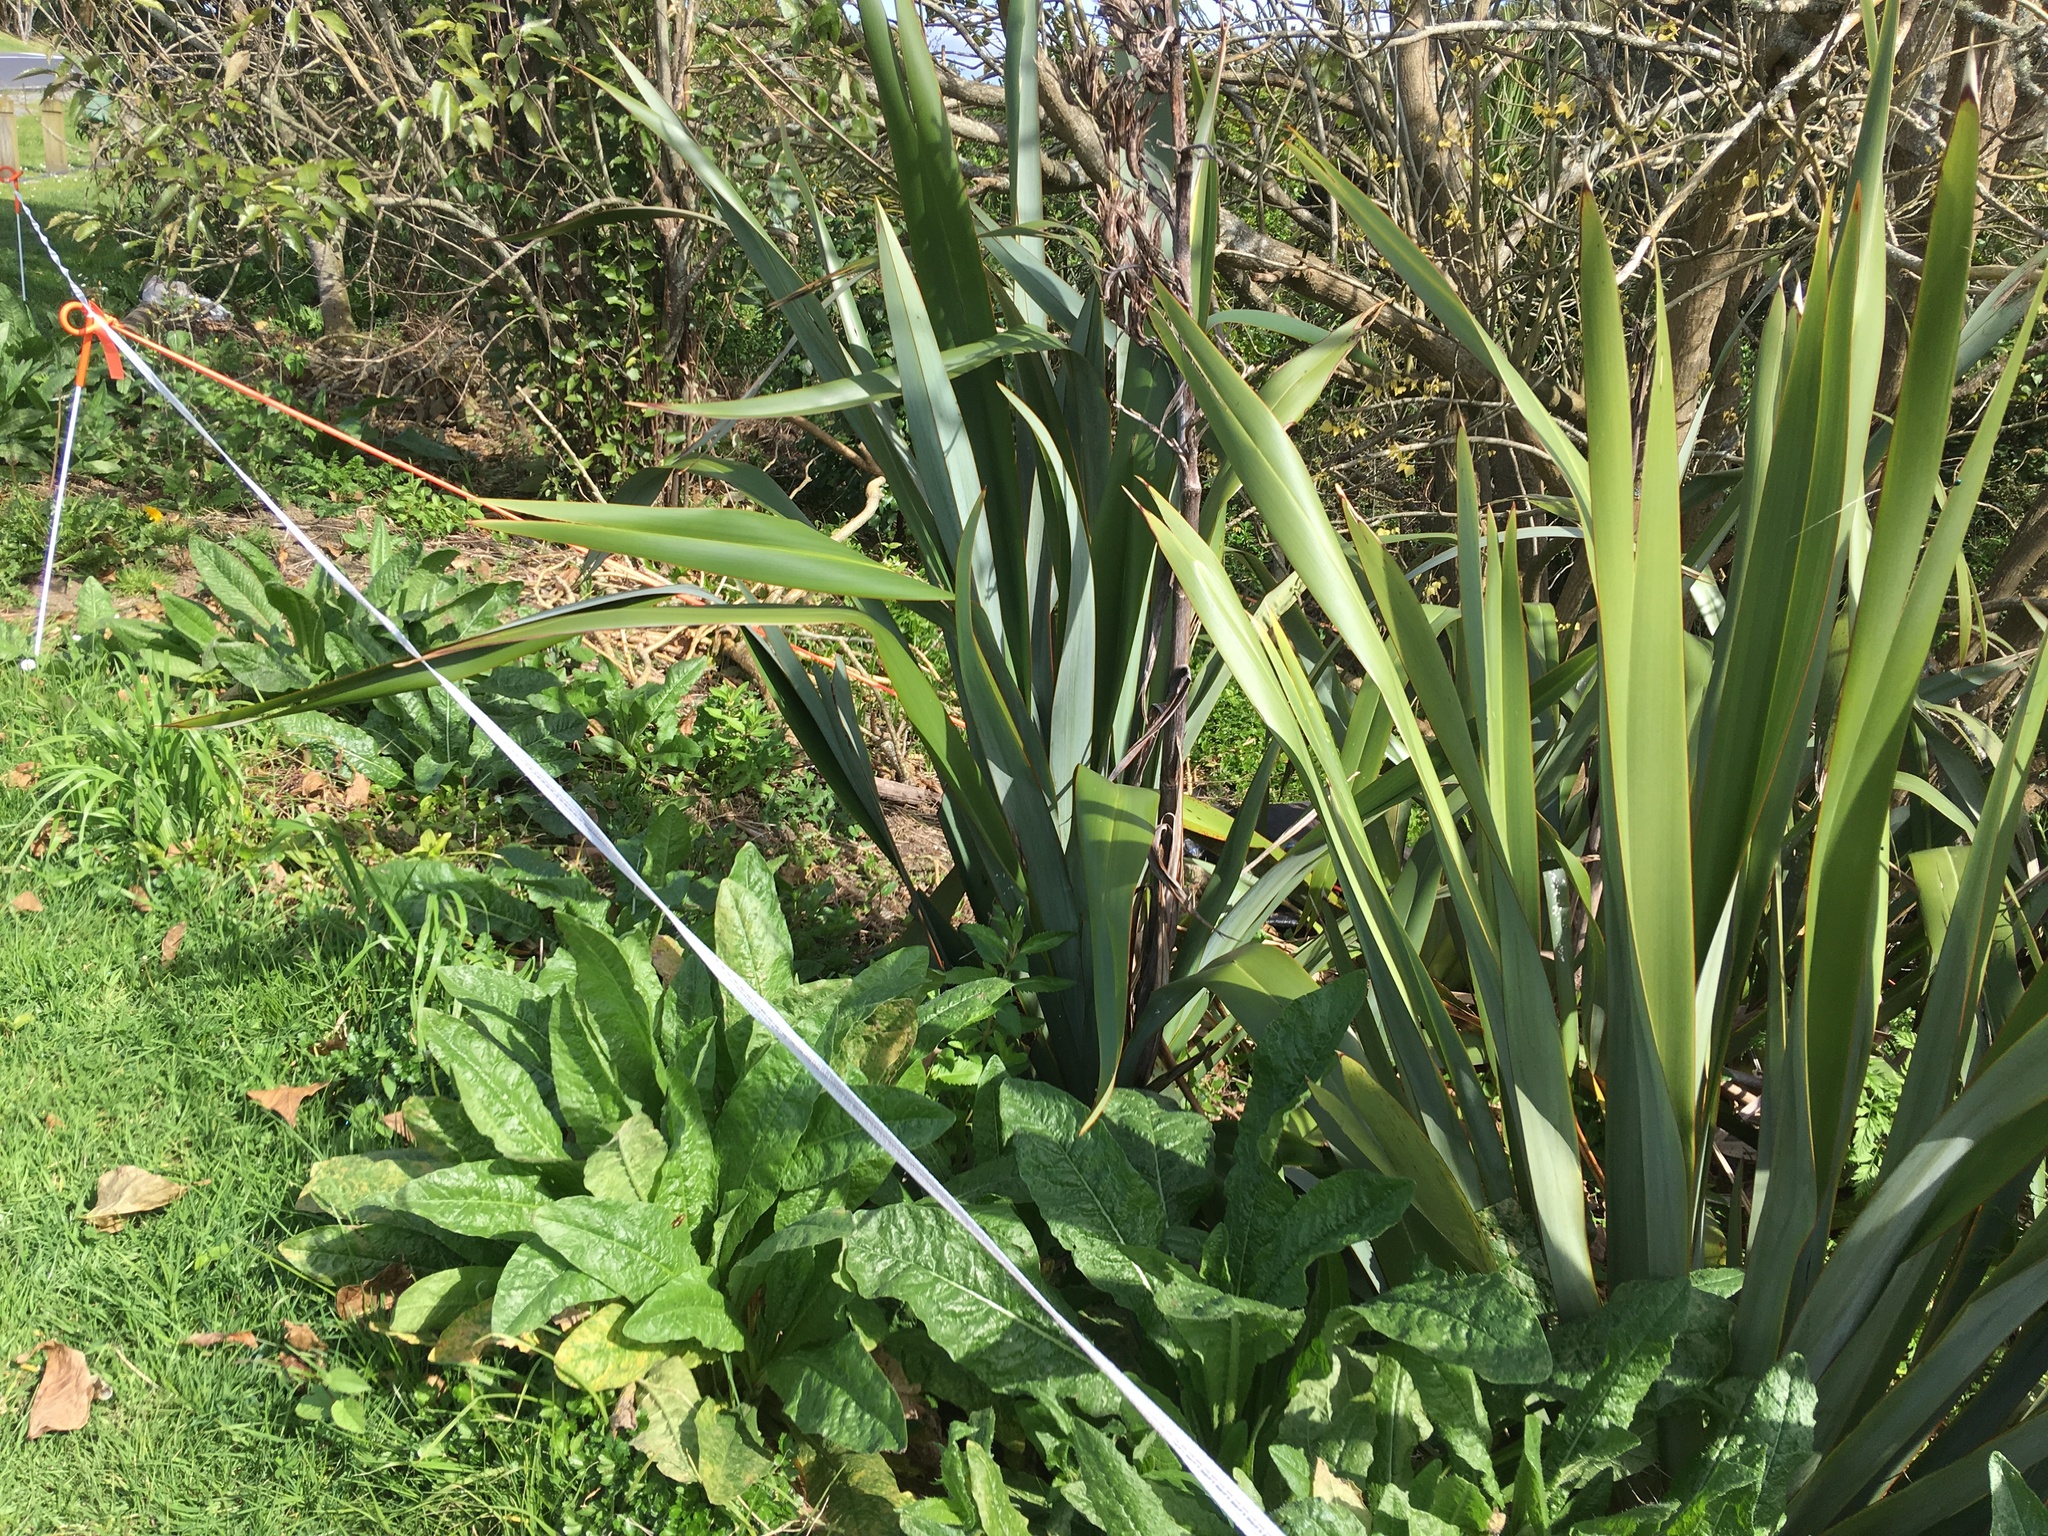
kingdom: Plantae
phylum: Tracheophyta
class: Magnoliopsida
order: Asterales
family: Asteraceae
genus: Helminthotheca
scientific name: Helminthotheca echioides
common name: Ox-tongue
